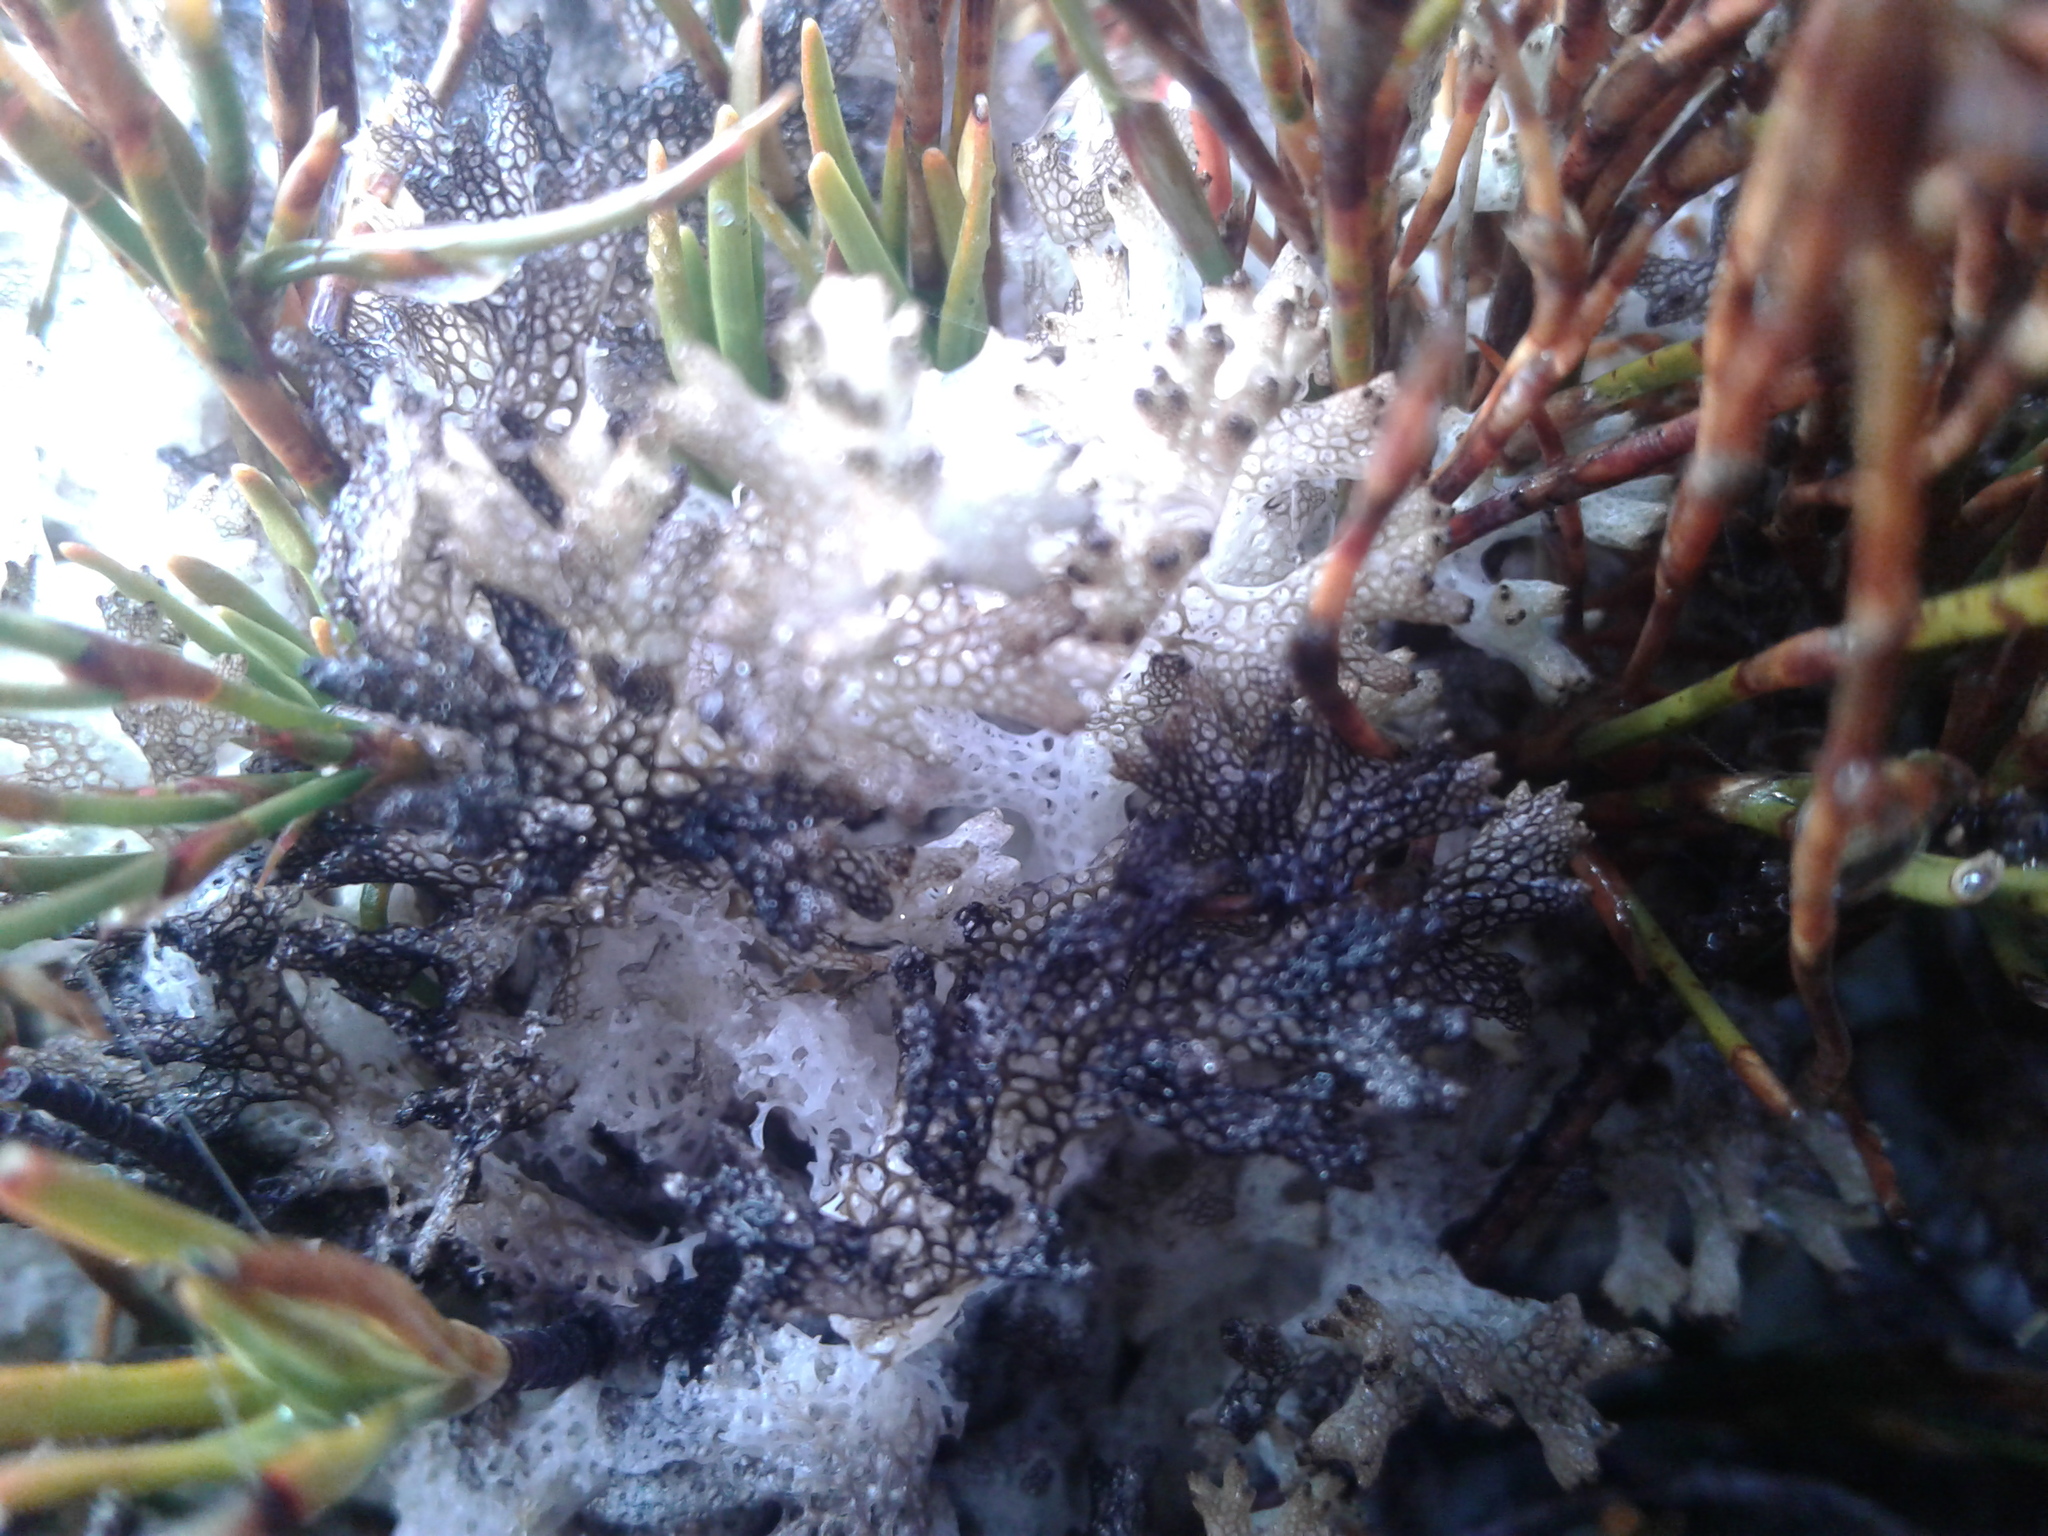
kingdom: Fungi
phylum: Ascomycota
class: Lecanoromycetes
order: Lecanorales
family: Cladoniaceae
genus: Pulchrocladia
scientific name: Pulchrocladia retipora
